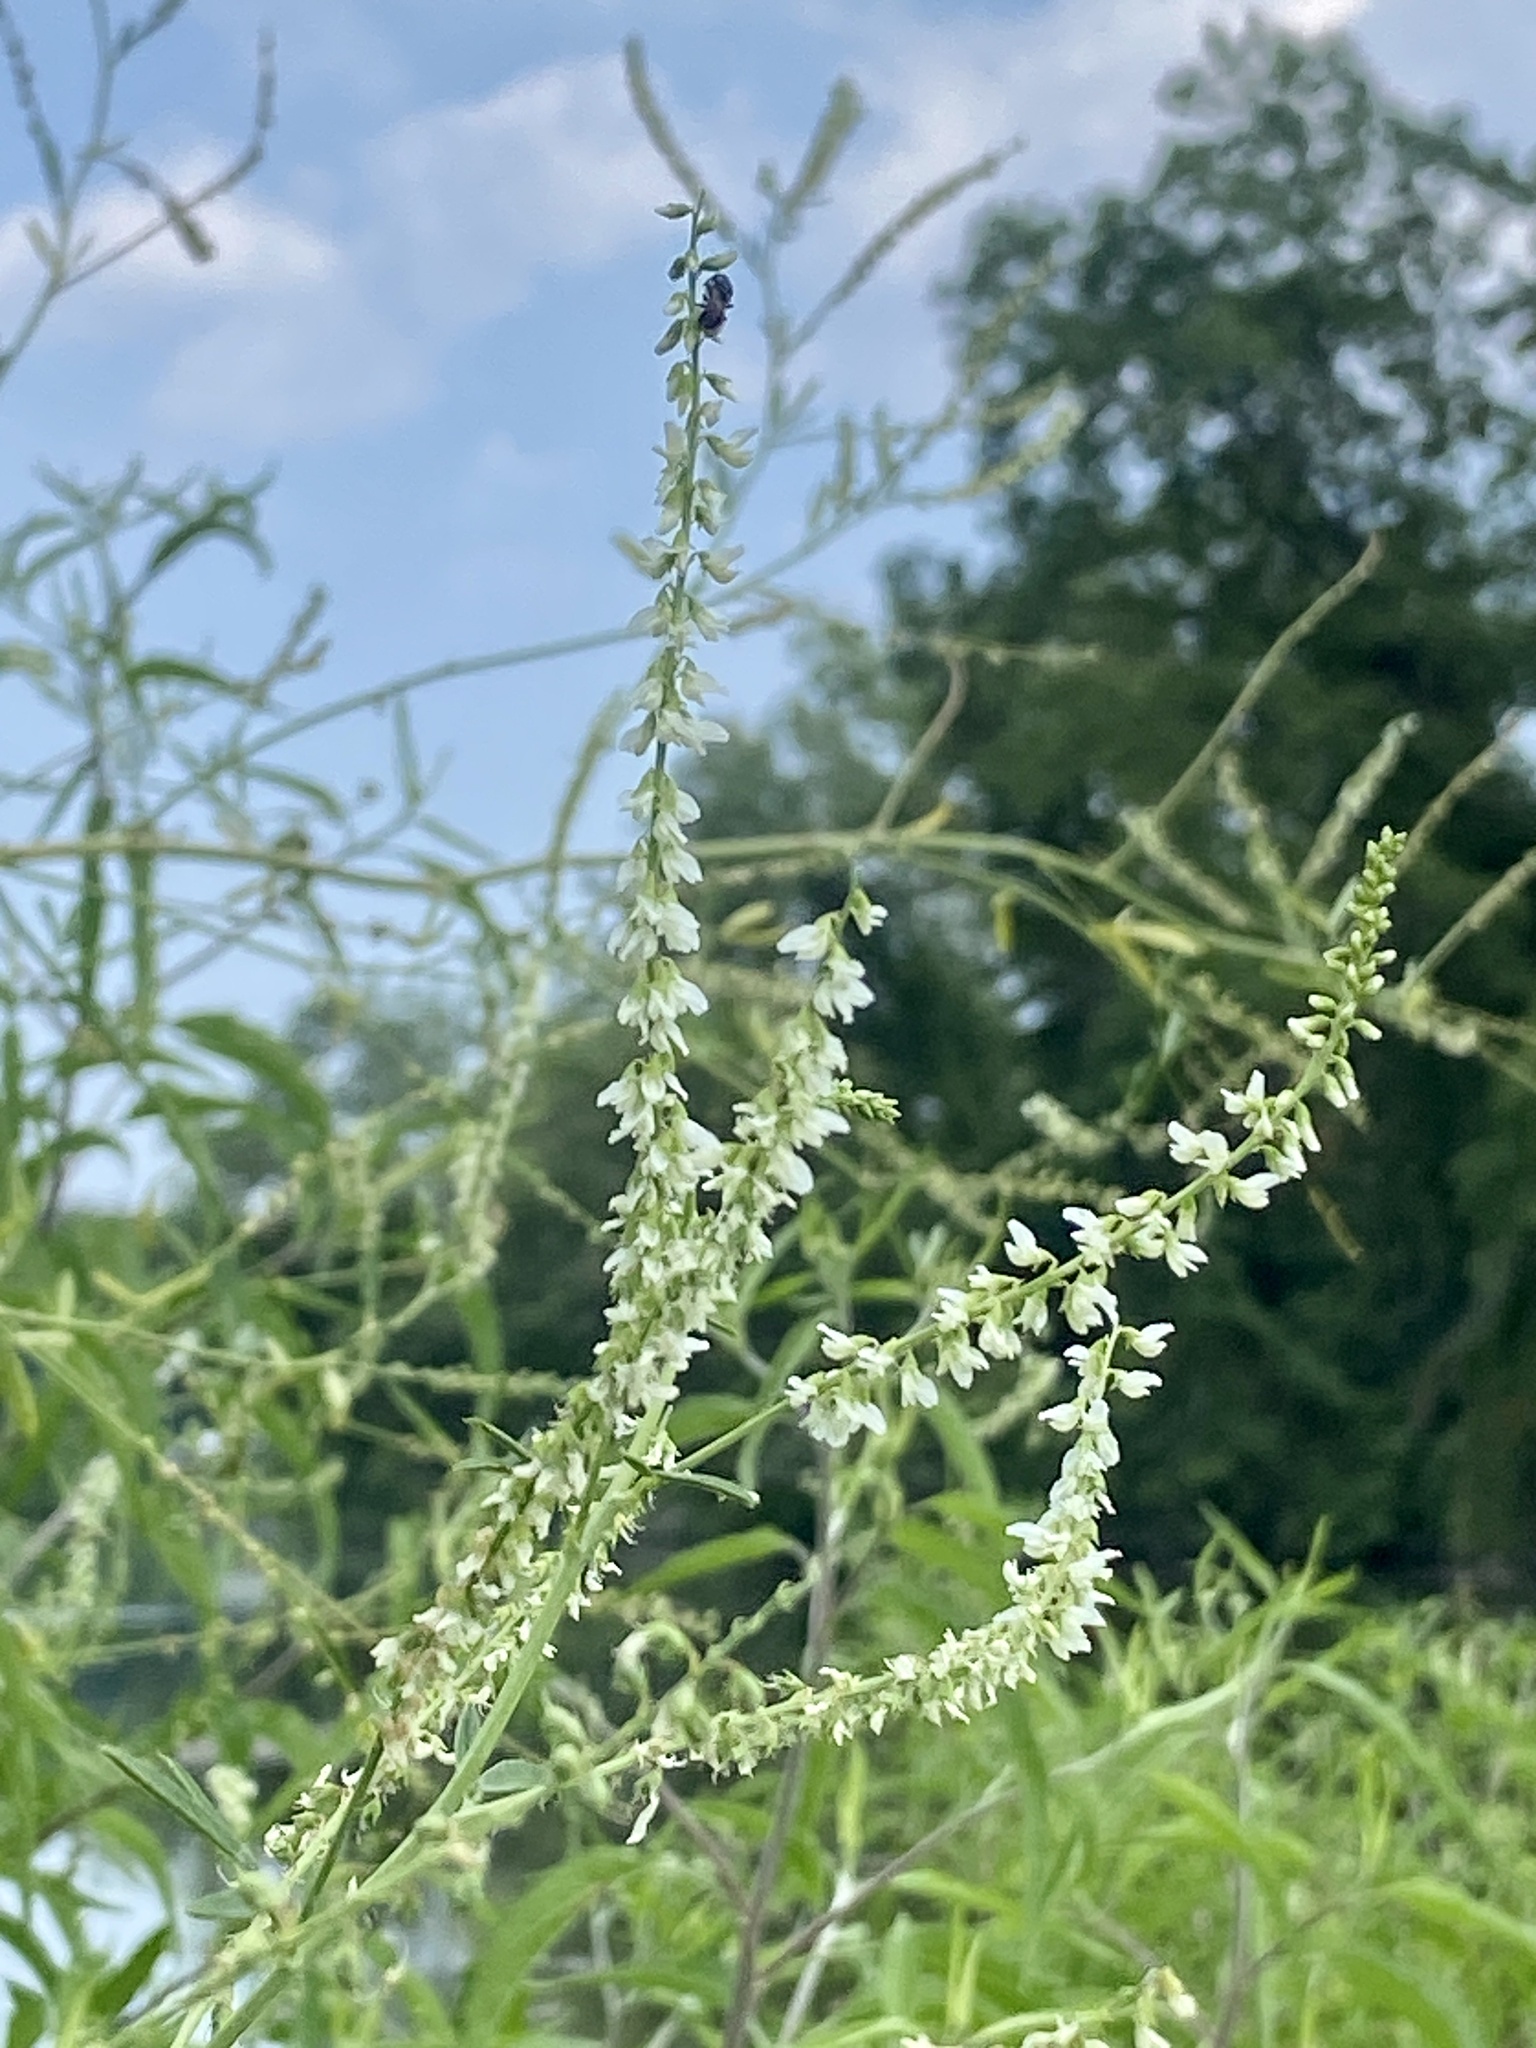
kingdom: Plantae
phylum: Tracheophyta
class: Magnoliopsida
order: Fabales
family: Fabaceae
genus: Melilotus
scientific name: Melilotus albus
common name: White melilot
